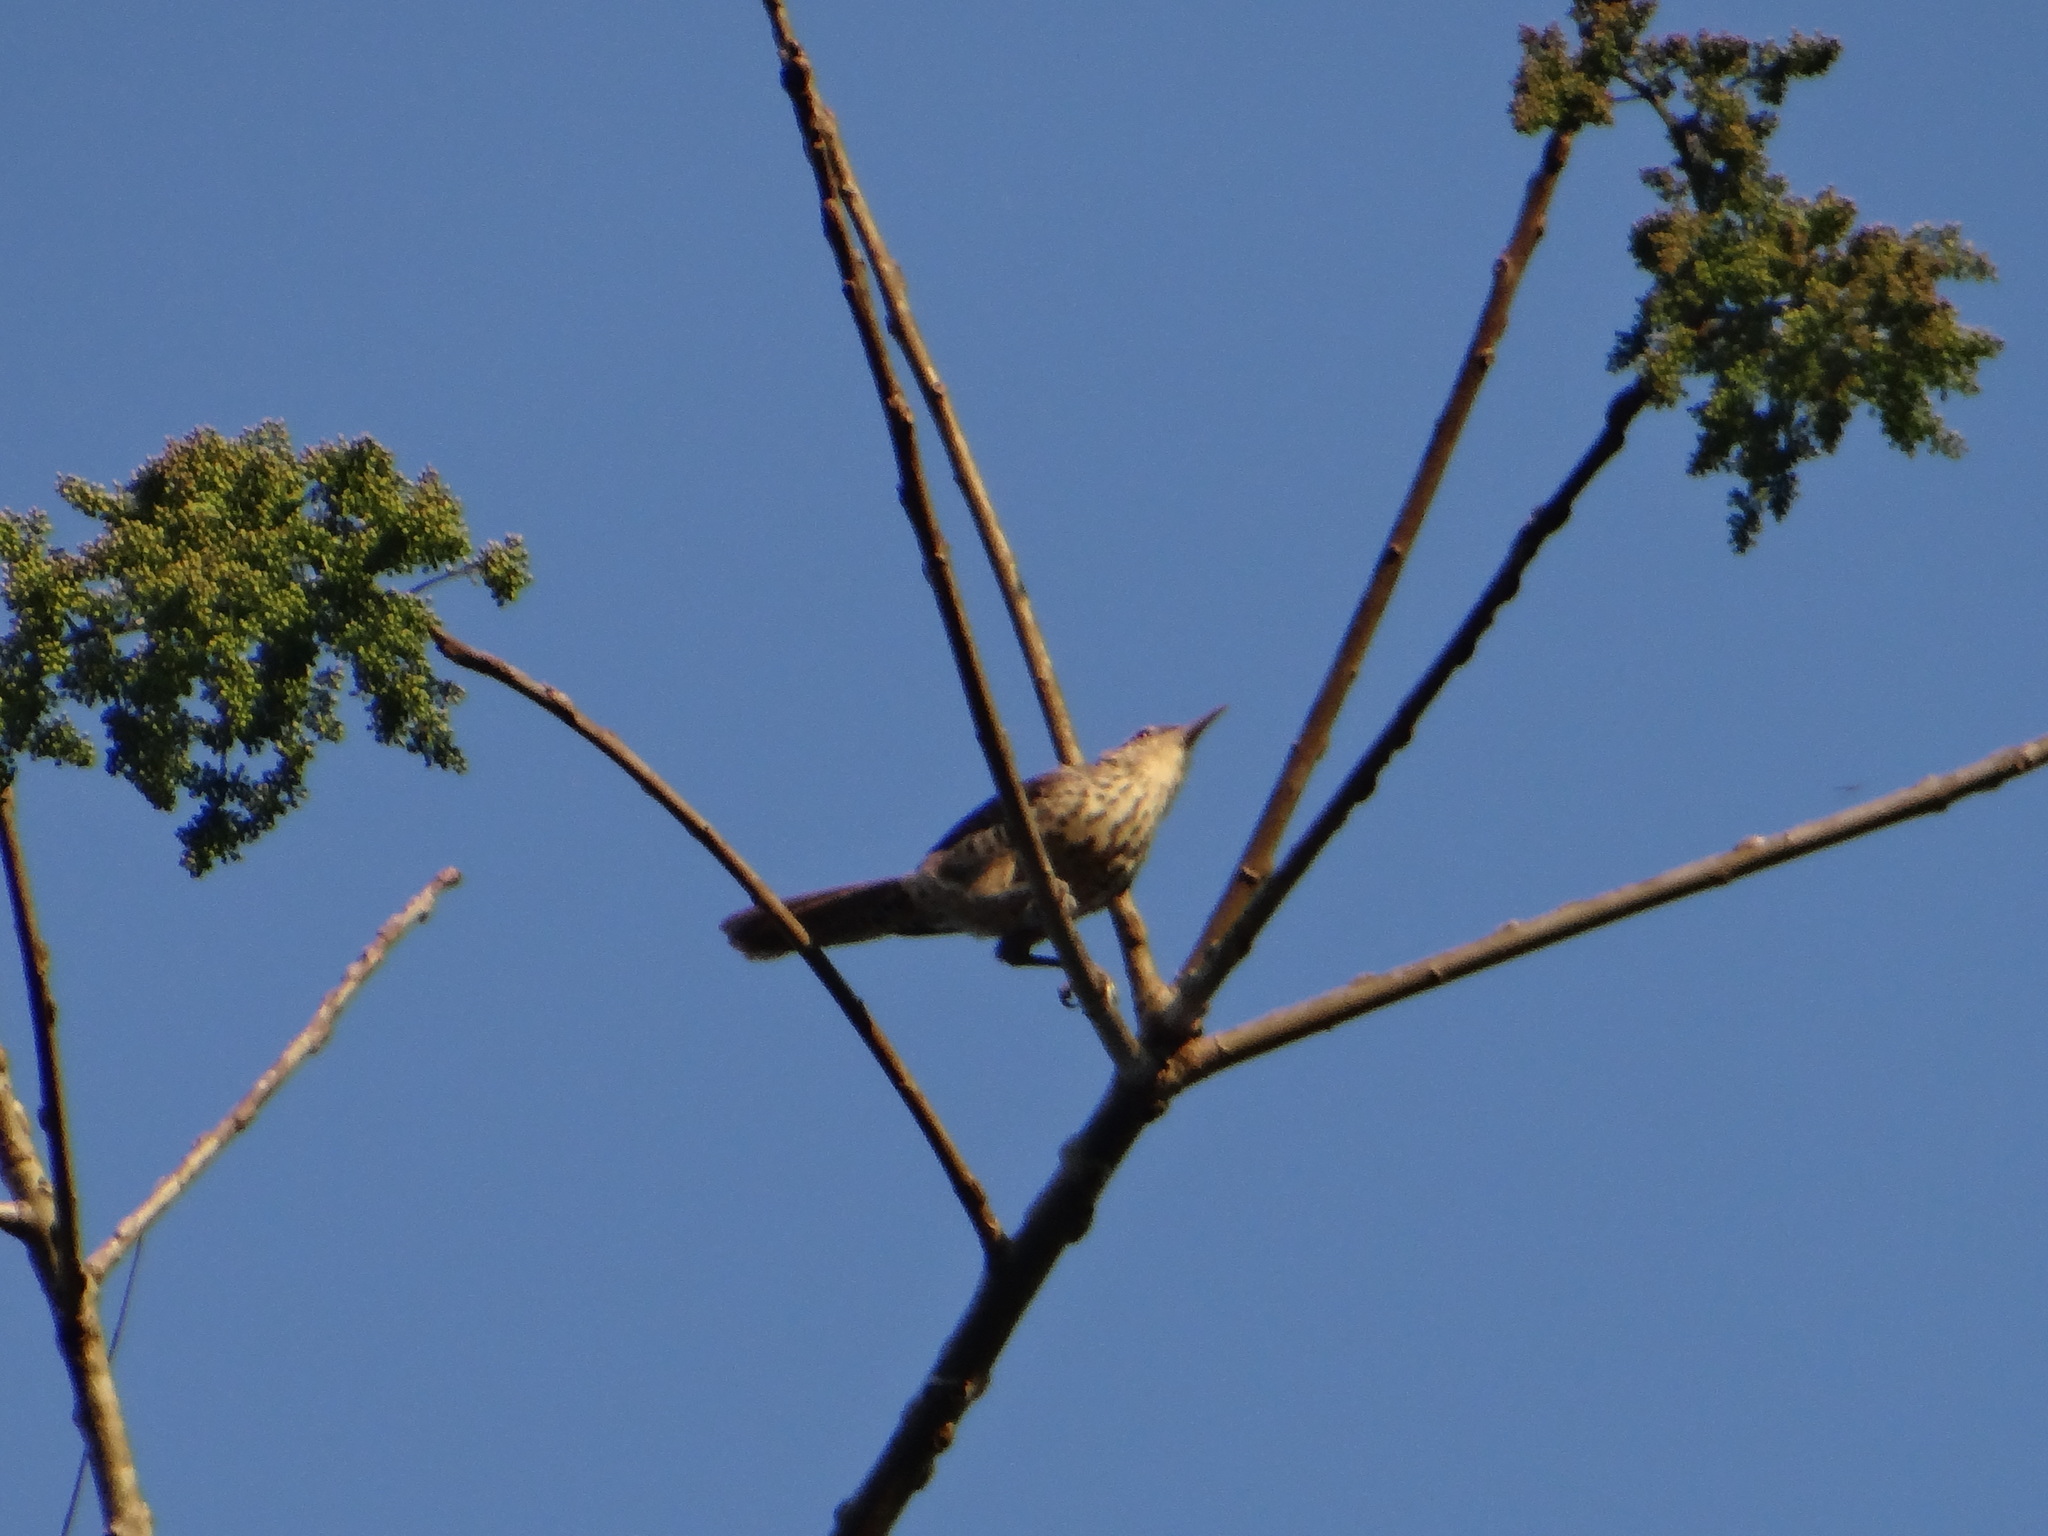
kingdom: Animalia
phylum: Chordata
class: Aves
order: Passeriformes
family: Troglodytidae
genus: Campylorhynchus
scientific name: Campylorhynchus turdinus
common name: Thrush-like wren
